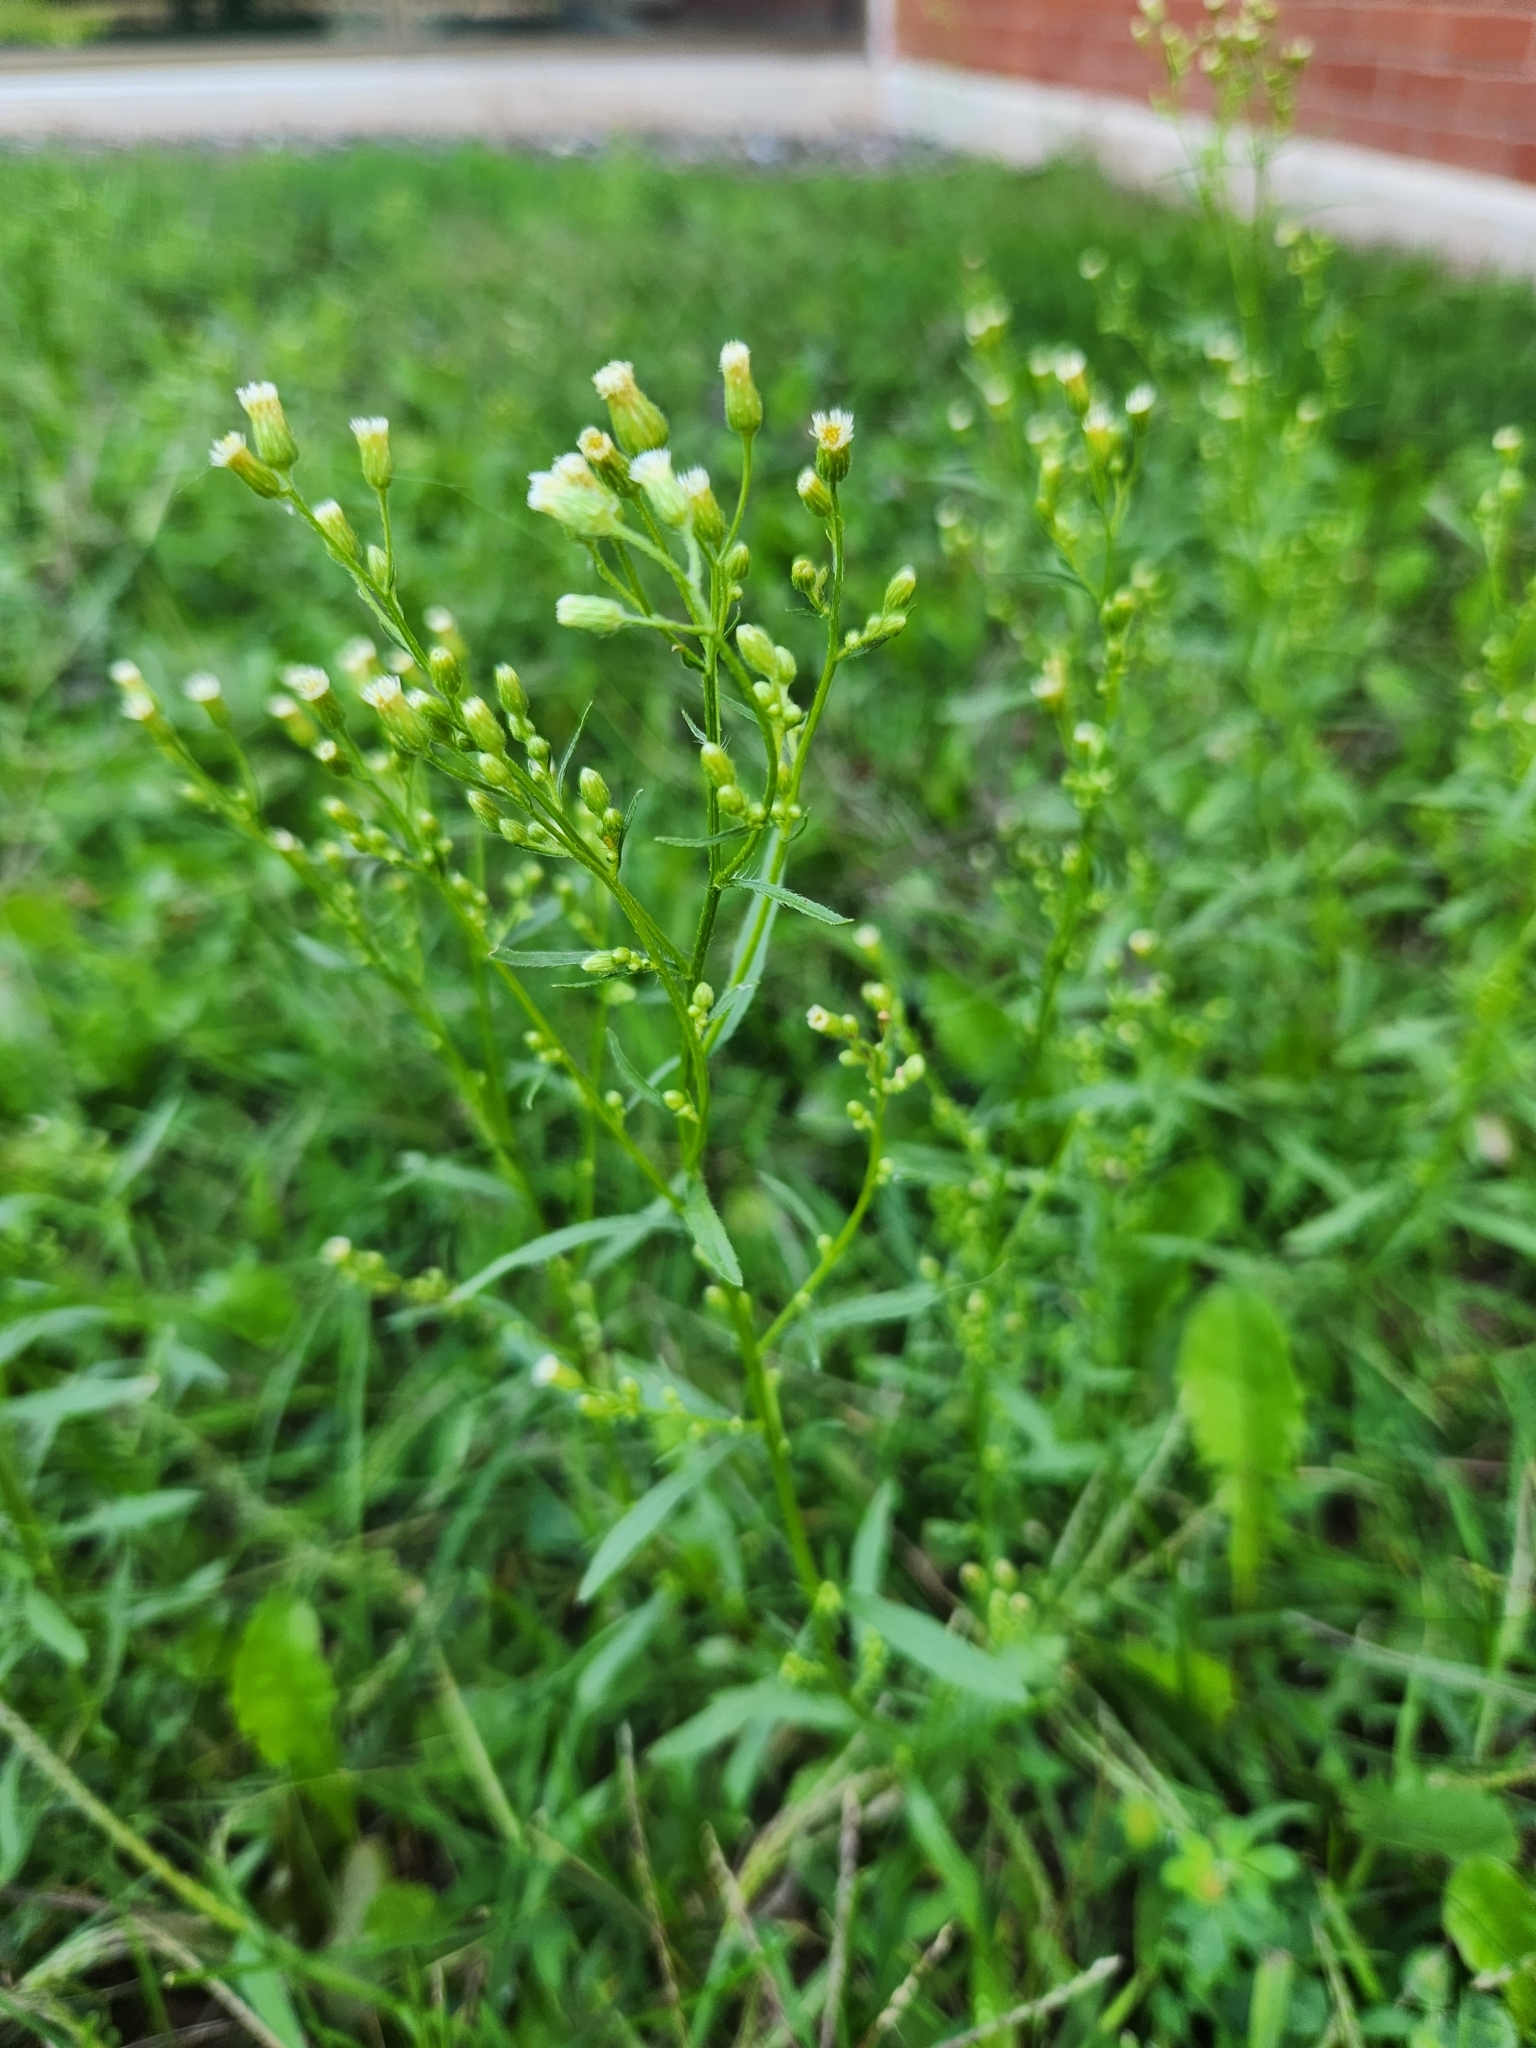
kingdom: Plantae
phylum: Tracheophyta
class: Magnoliopsida
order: Asterales
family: Asteraceae
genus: Erigeron
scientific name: Erigeron canadensis
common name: Canadian fleabane
